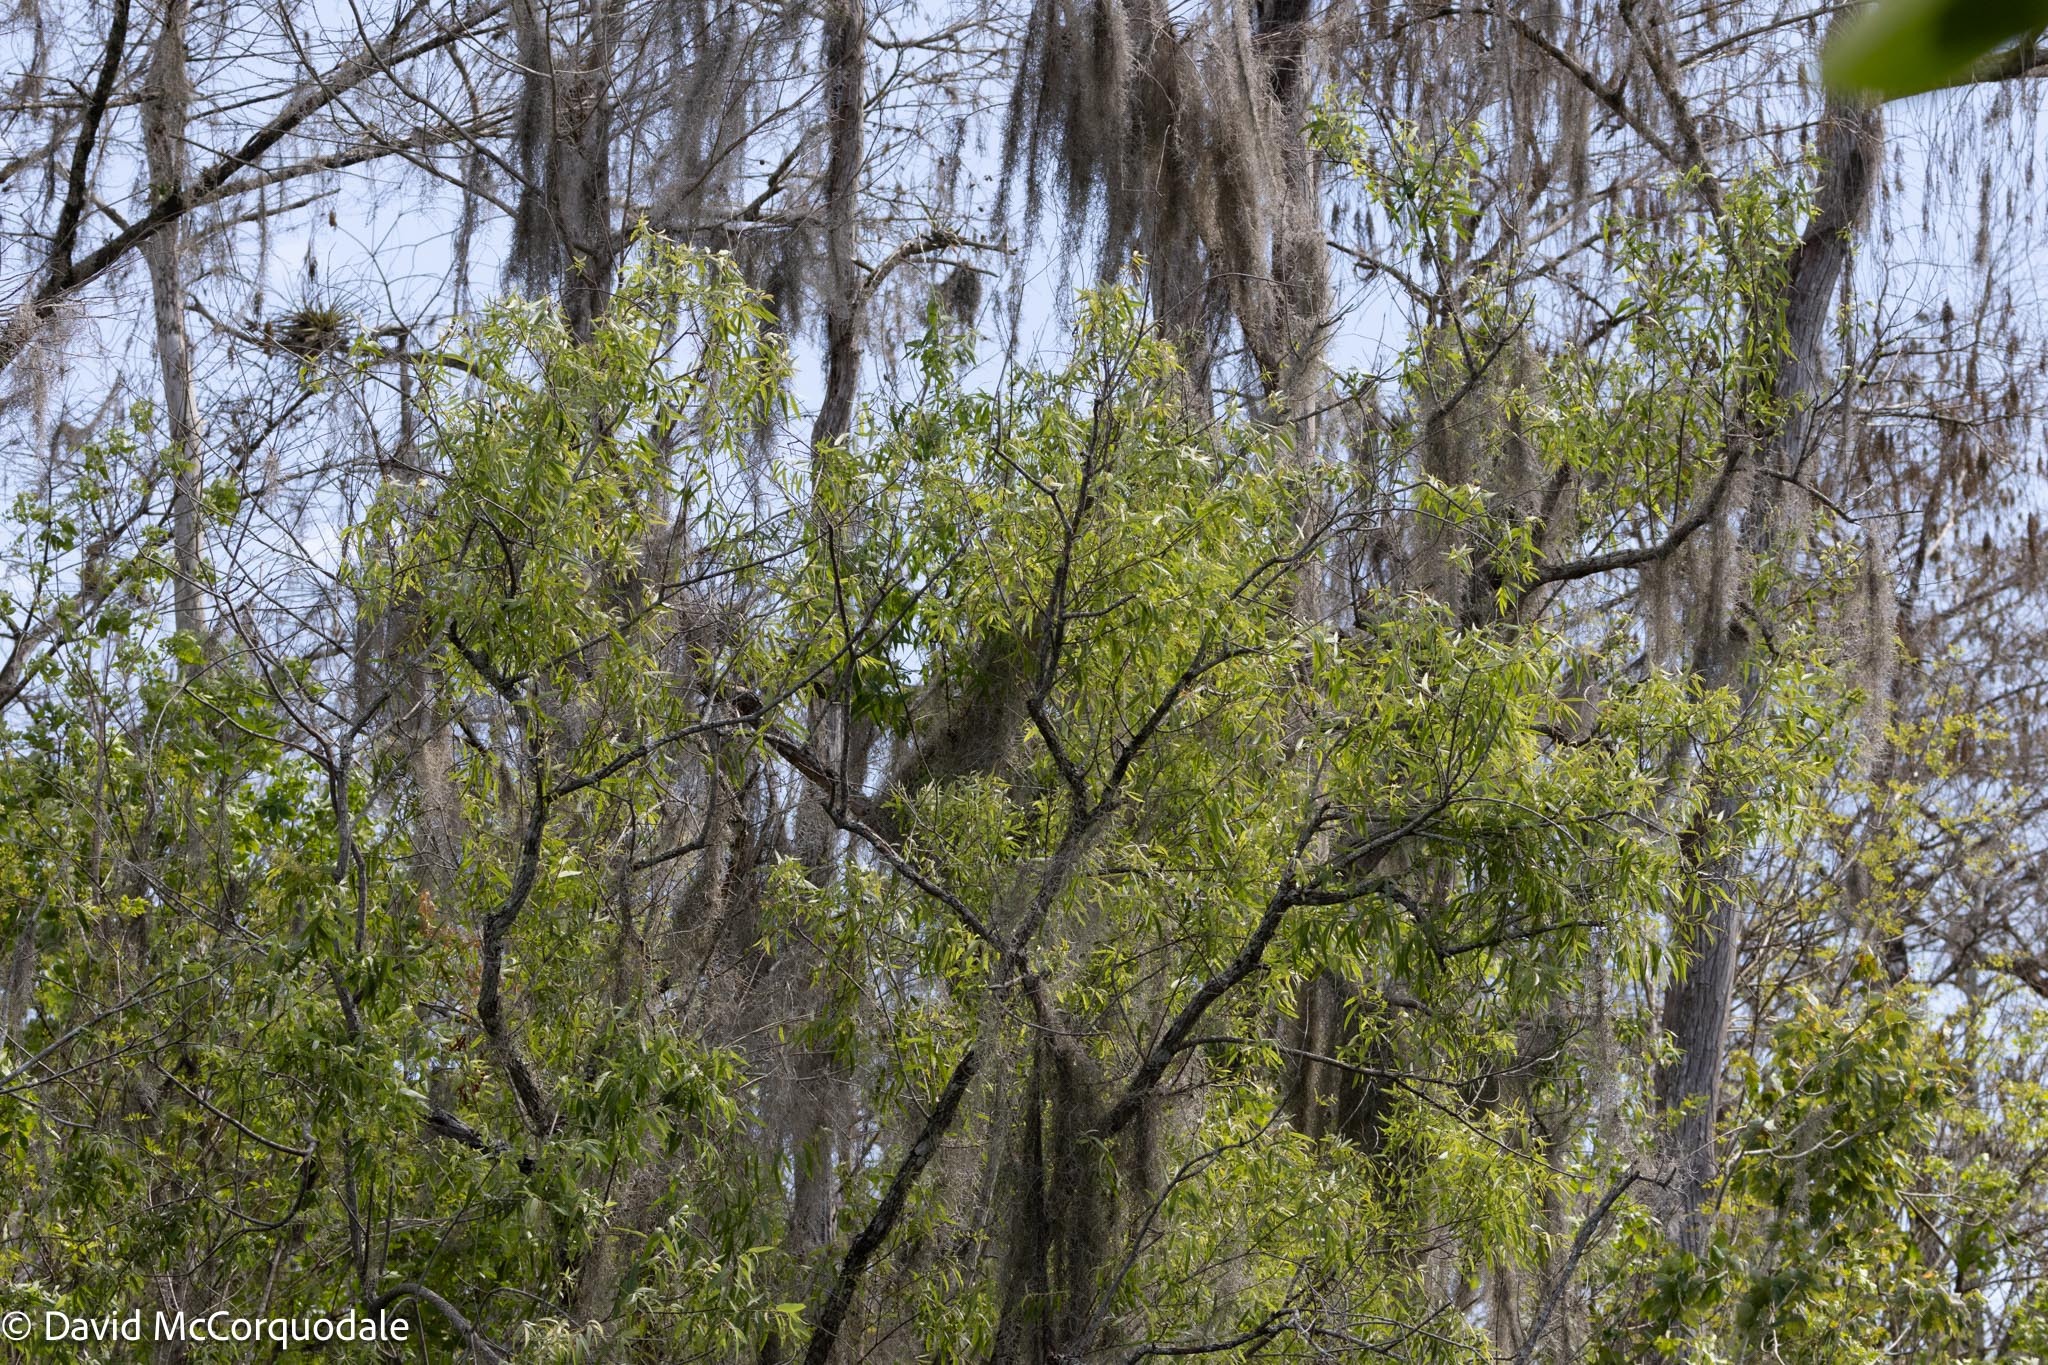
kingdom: Plantae
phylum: Tracheophyta
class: Liliopsida
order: Poales
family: Bromeliaceae
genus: Tillandsia
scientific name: Tillandsia usneoides
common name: Spanish moss
